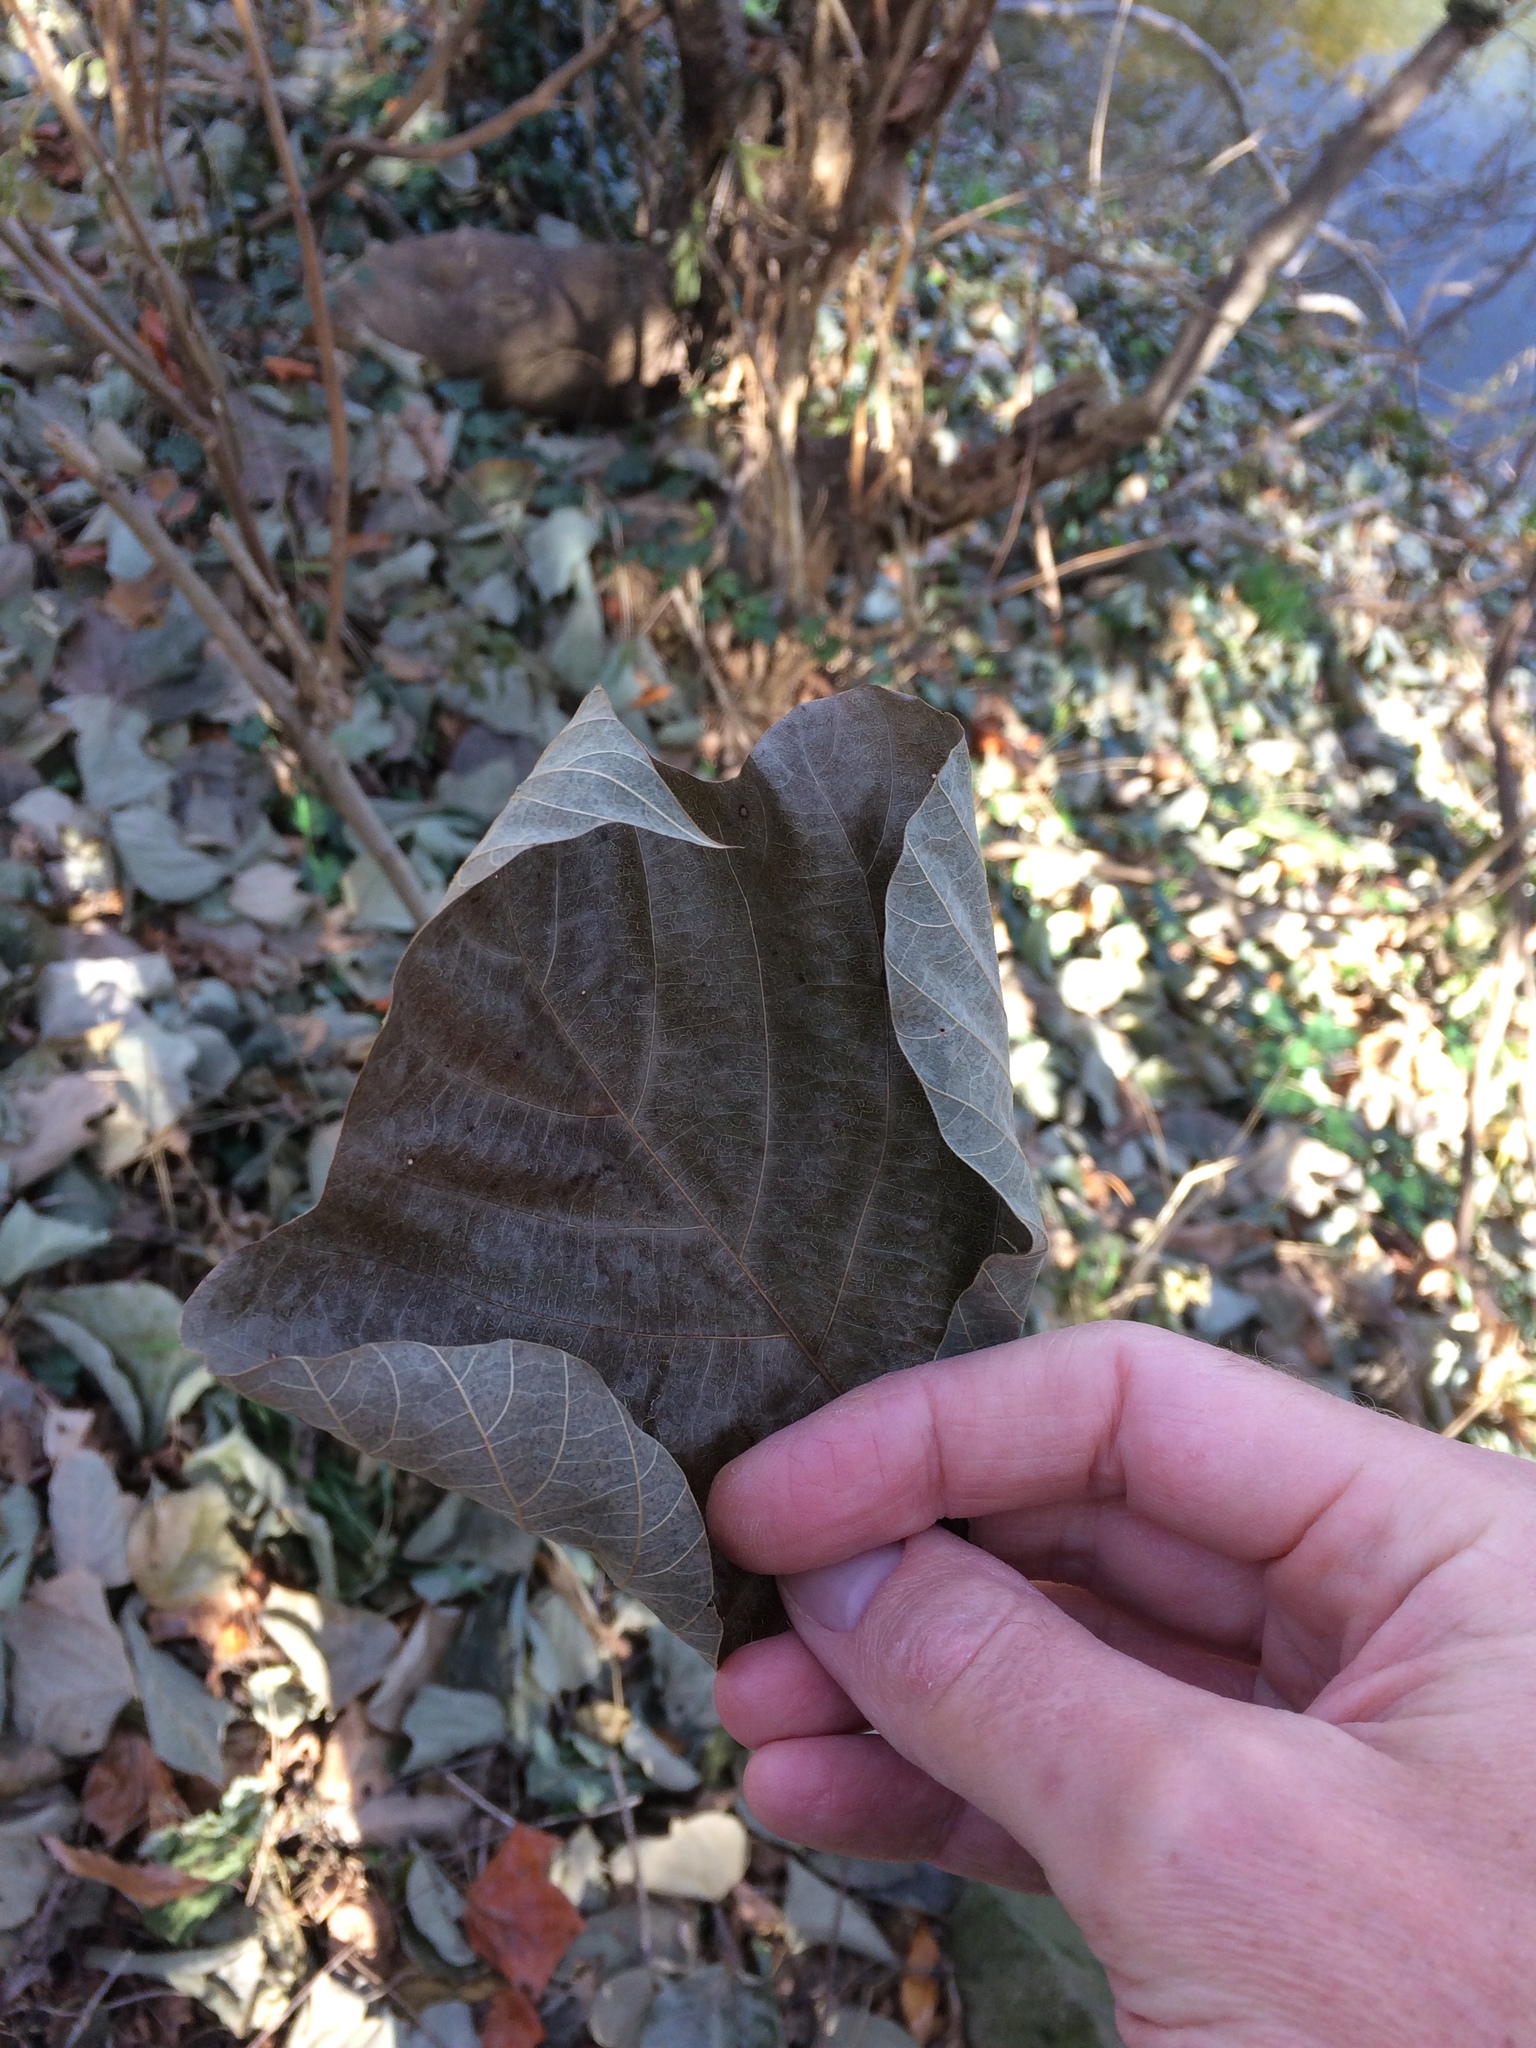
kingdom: Plantae
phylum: Tracheophyta
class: Magnoliopsida
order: Fabales
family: Fabaceae
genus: Pueraria
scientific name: Pueraria montana
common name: Kudzu
